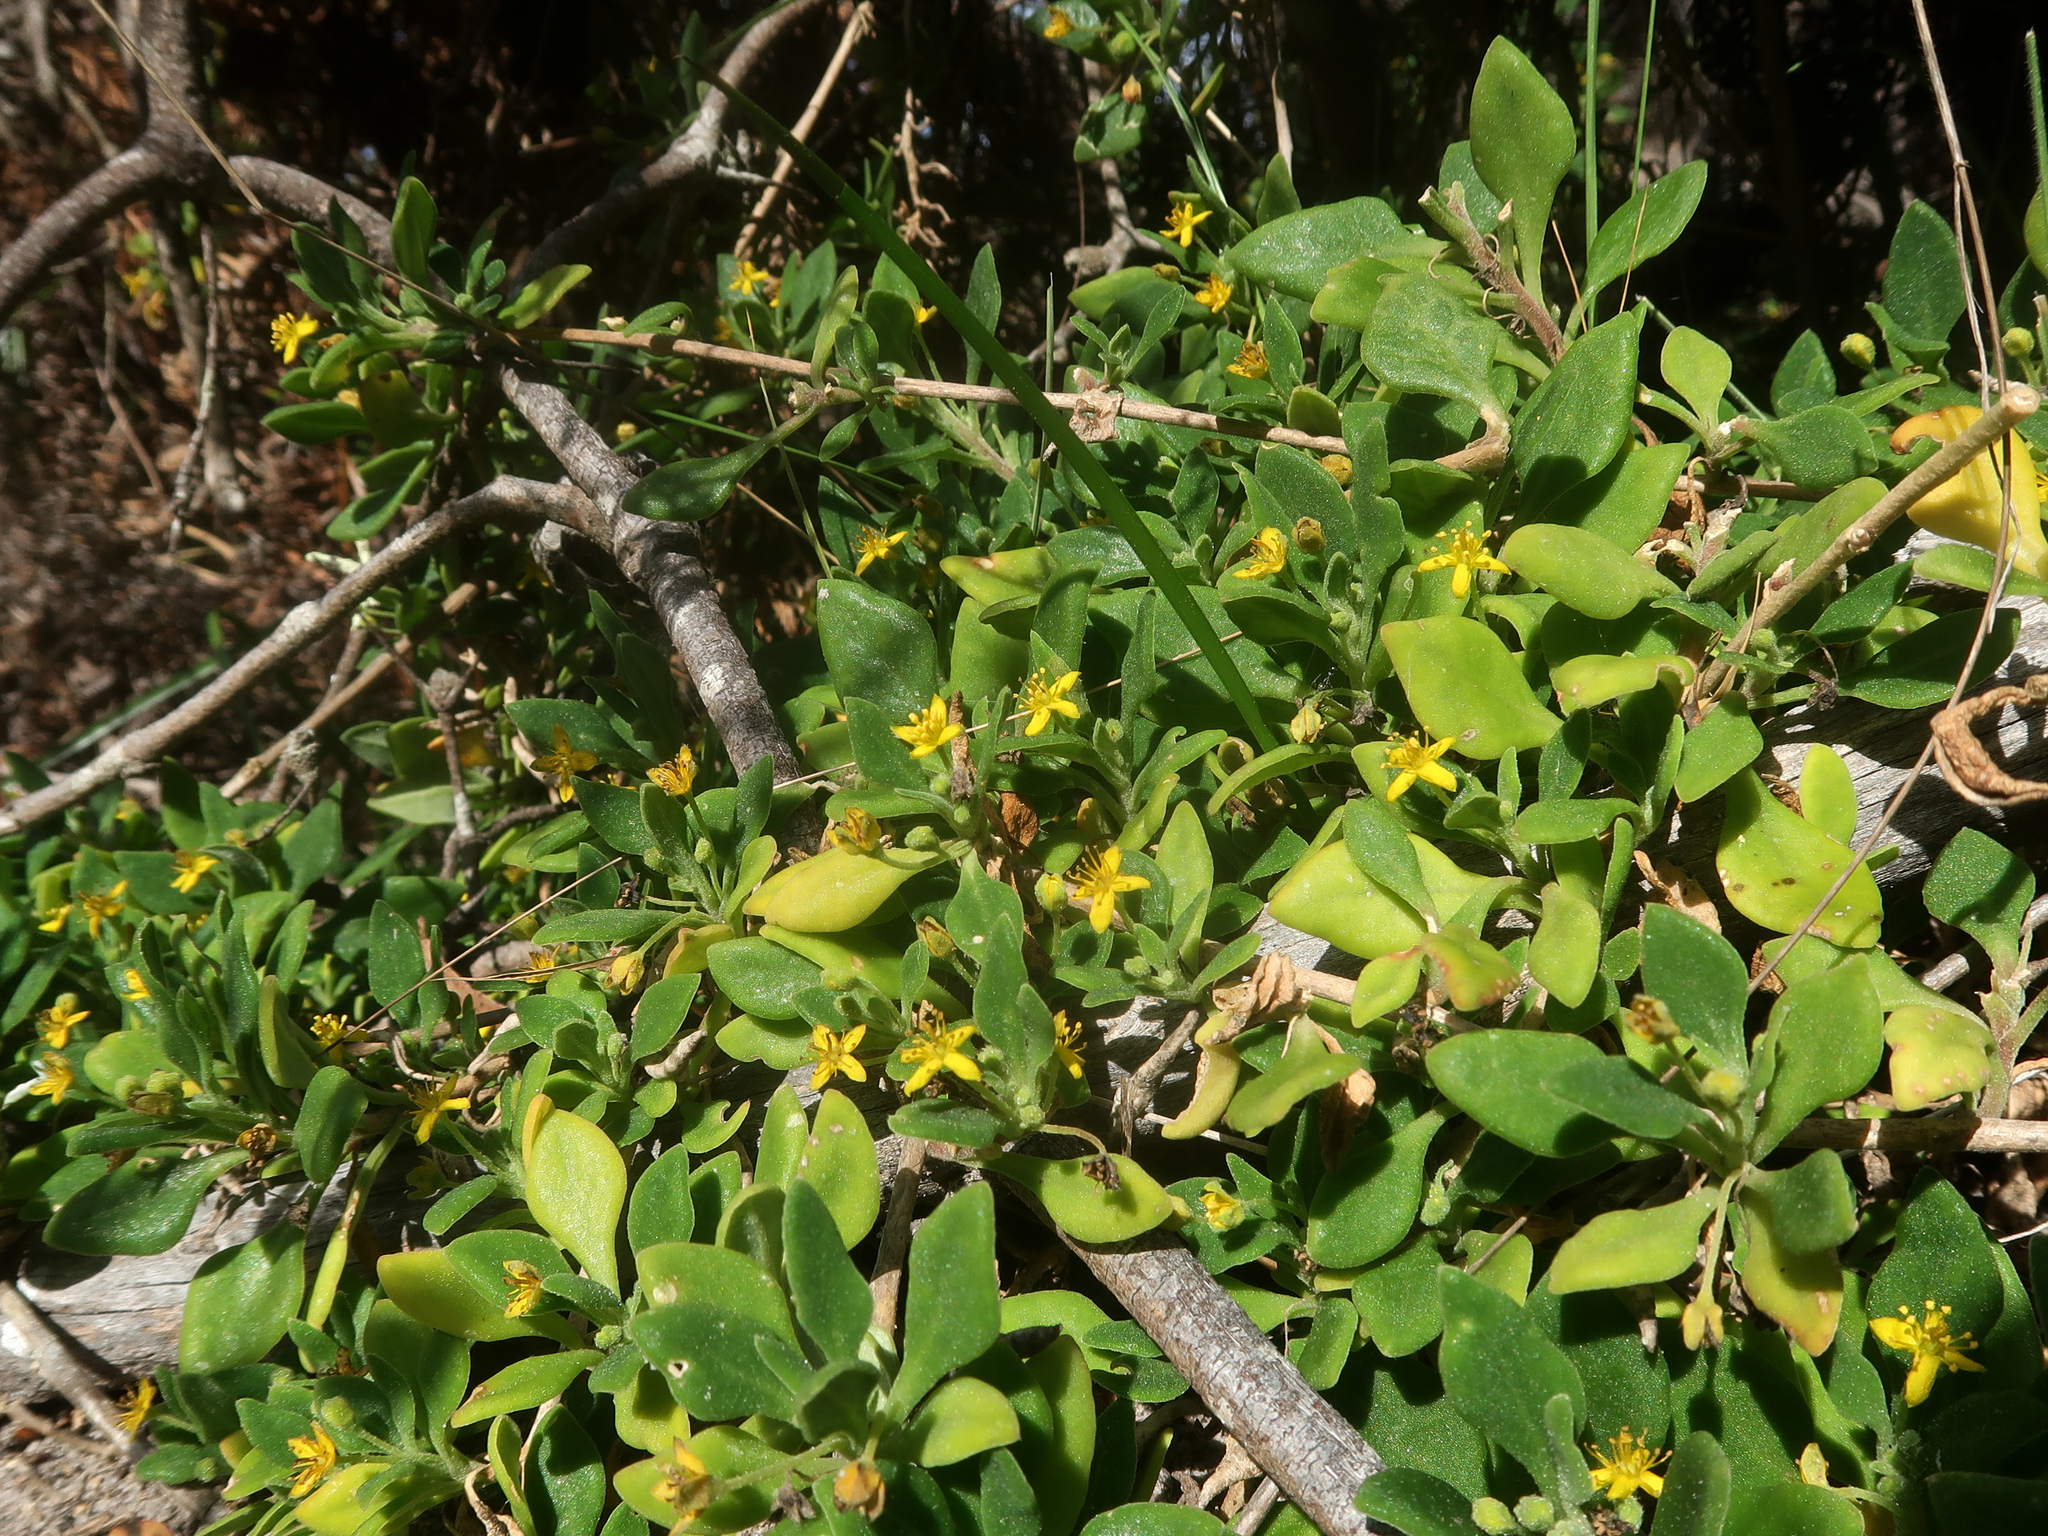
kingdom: Plantae
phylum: Tracheophyta
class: Magnoliopsida
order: Caryophyllales
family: Aizoaceae
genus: Tetragonia
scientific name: Tetragonia implexicoma
